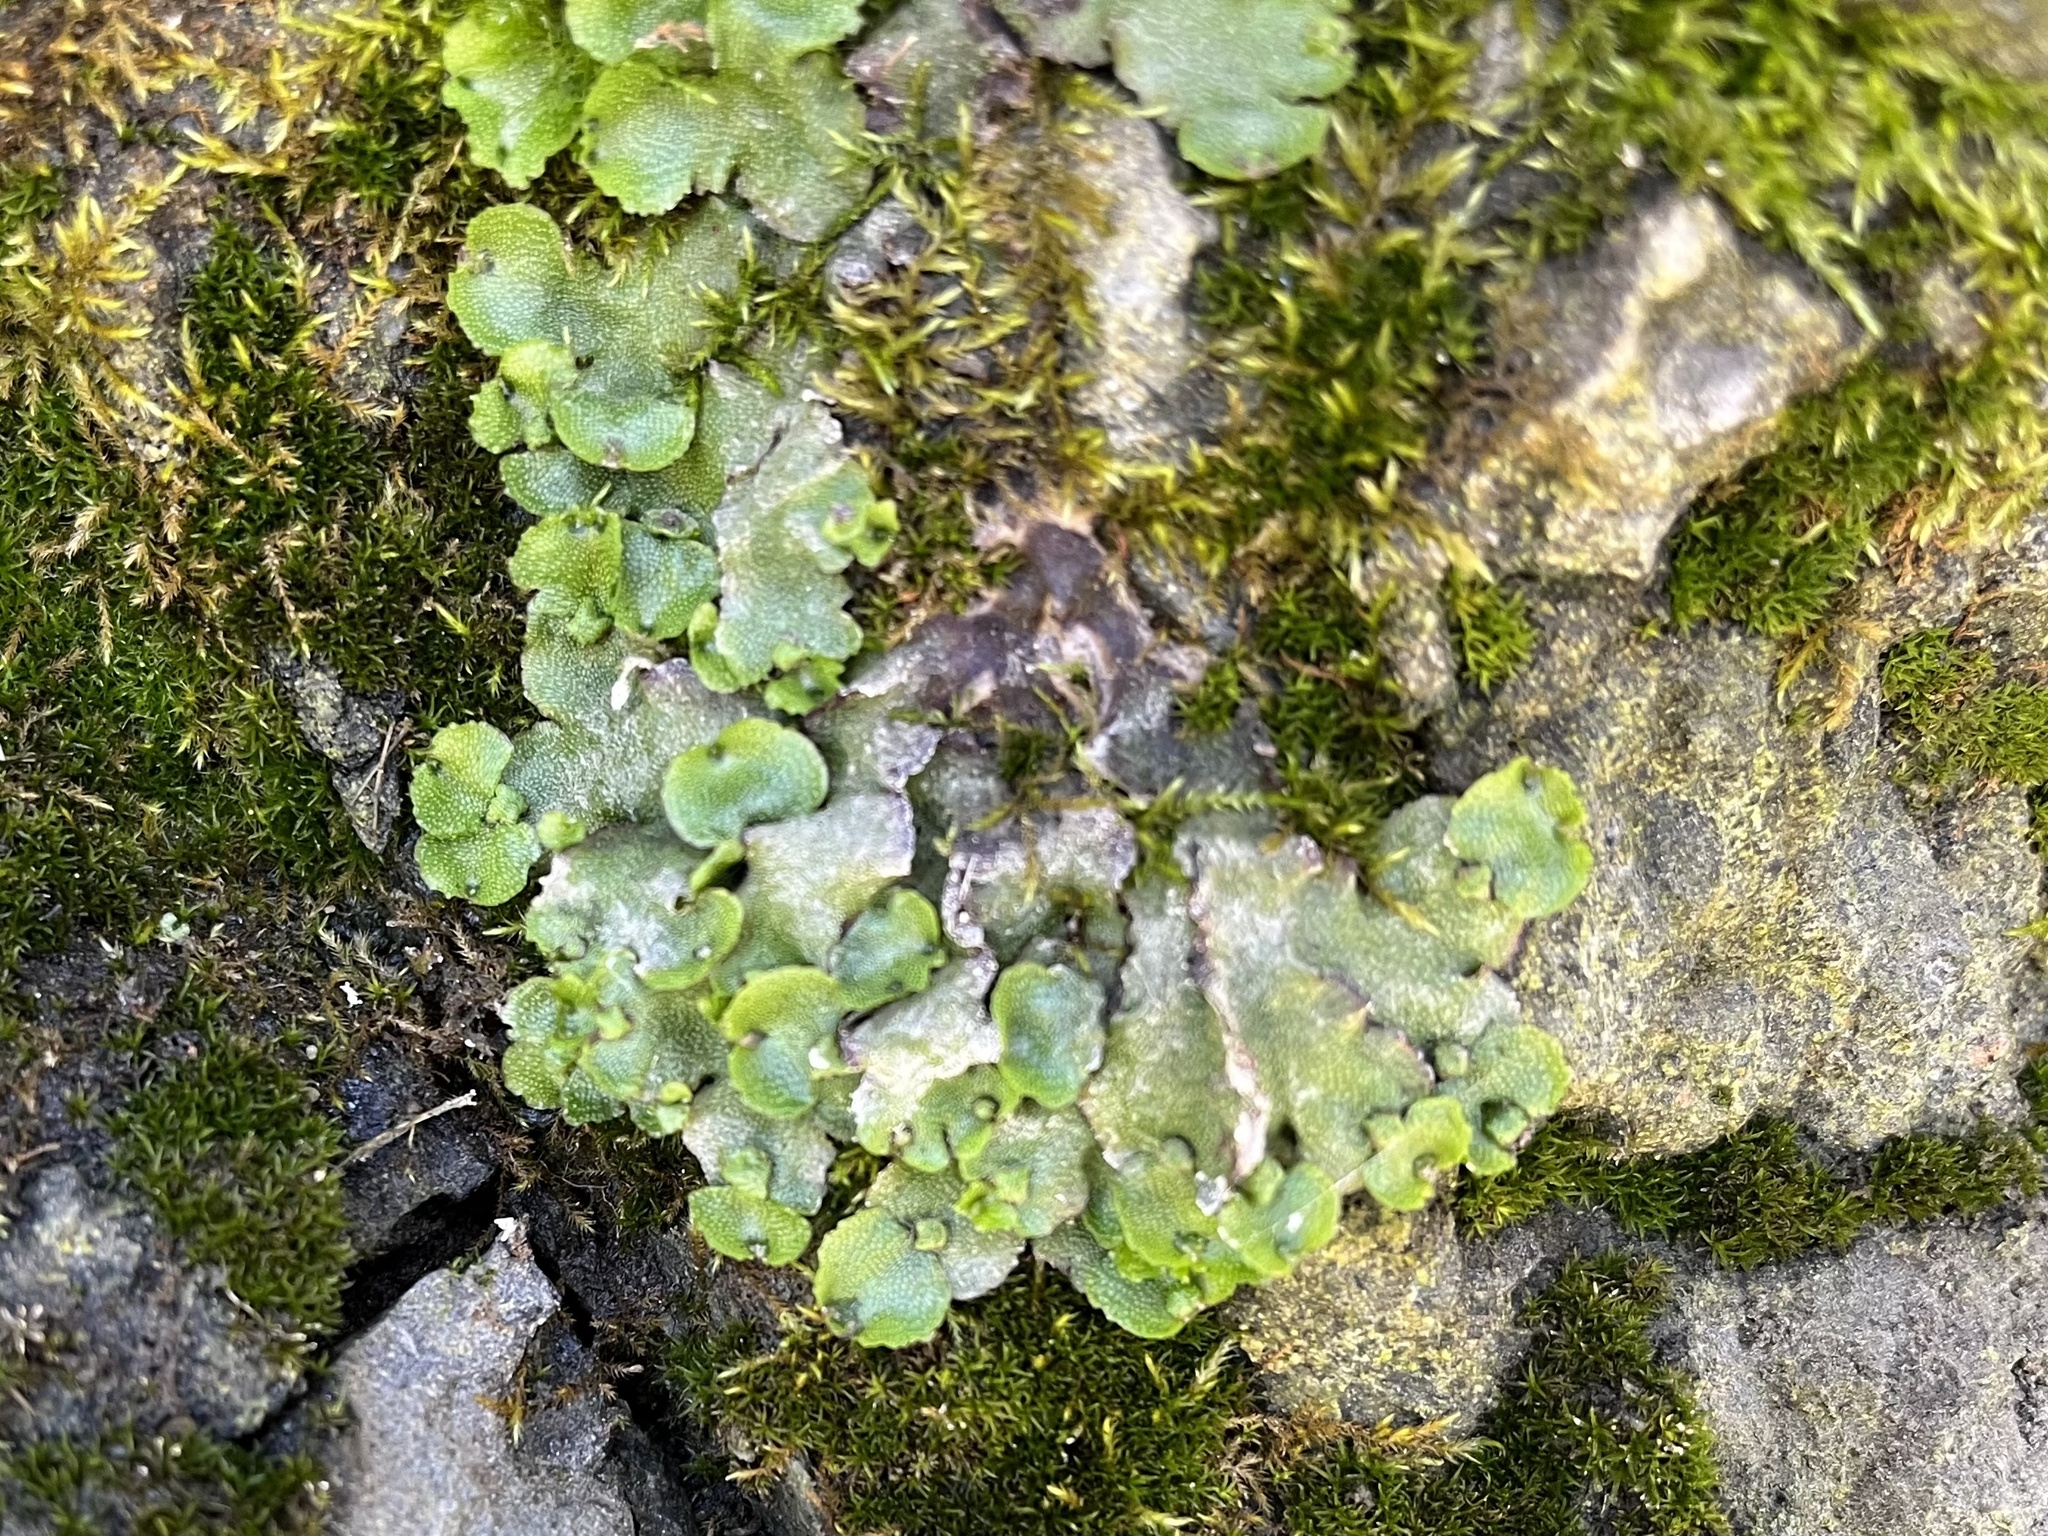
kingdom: Plantae
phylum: Marchantiophyta
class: Marchantiopsida
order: Marchantiales
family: Marchantiaceae
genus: Marchantia
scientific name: Marchantia quadrata
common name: Narrow mushroom-headed liverwort
